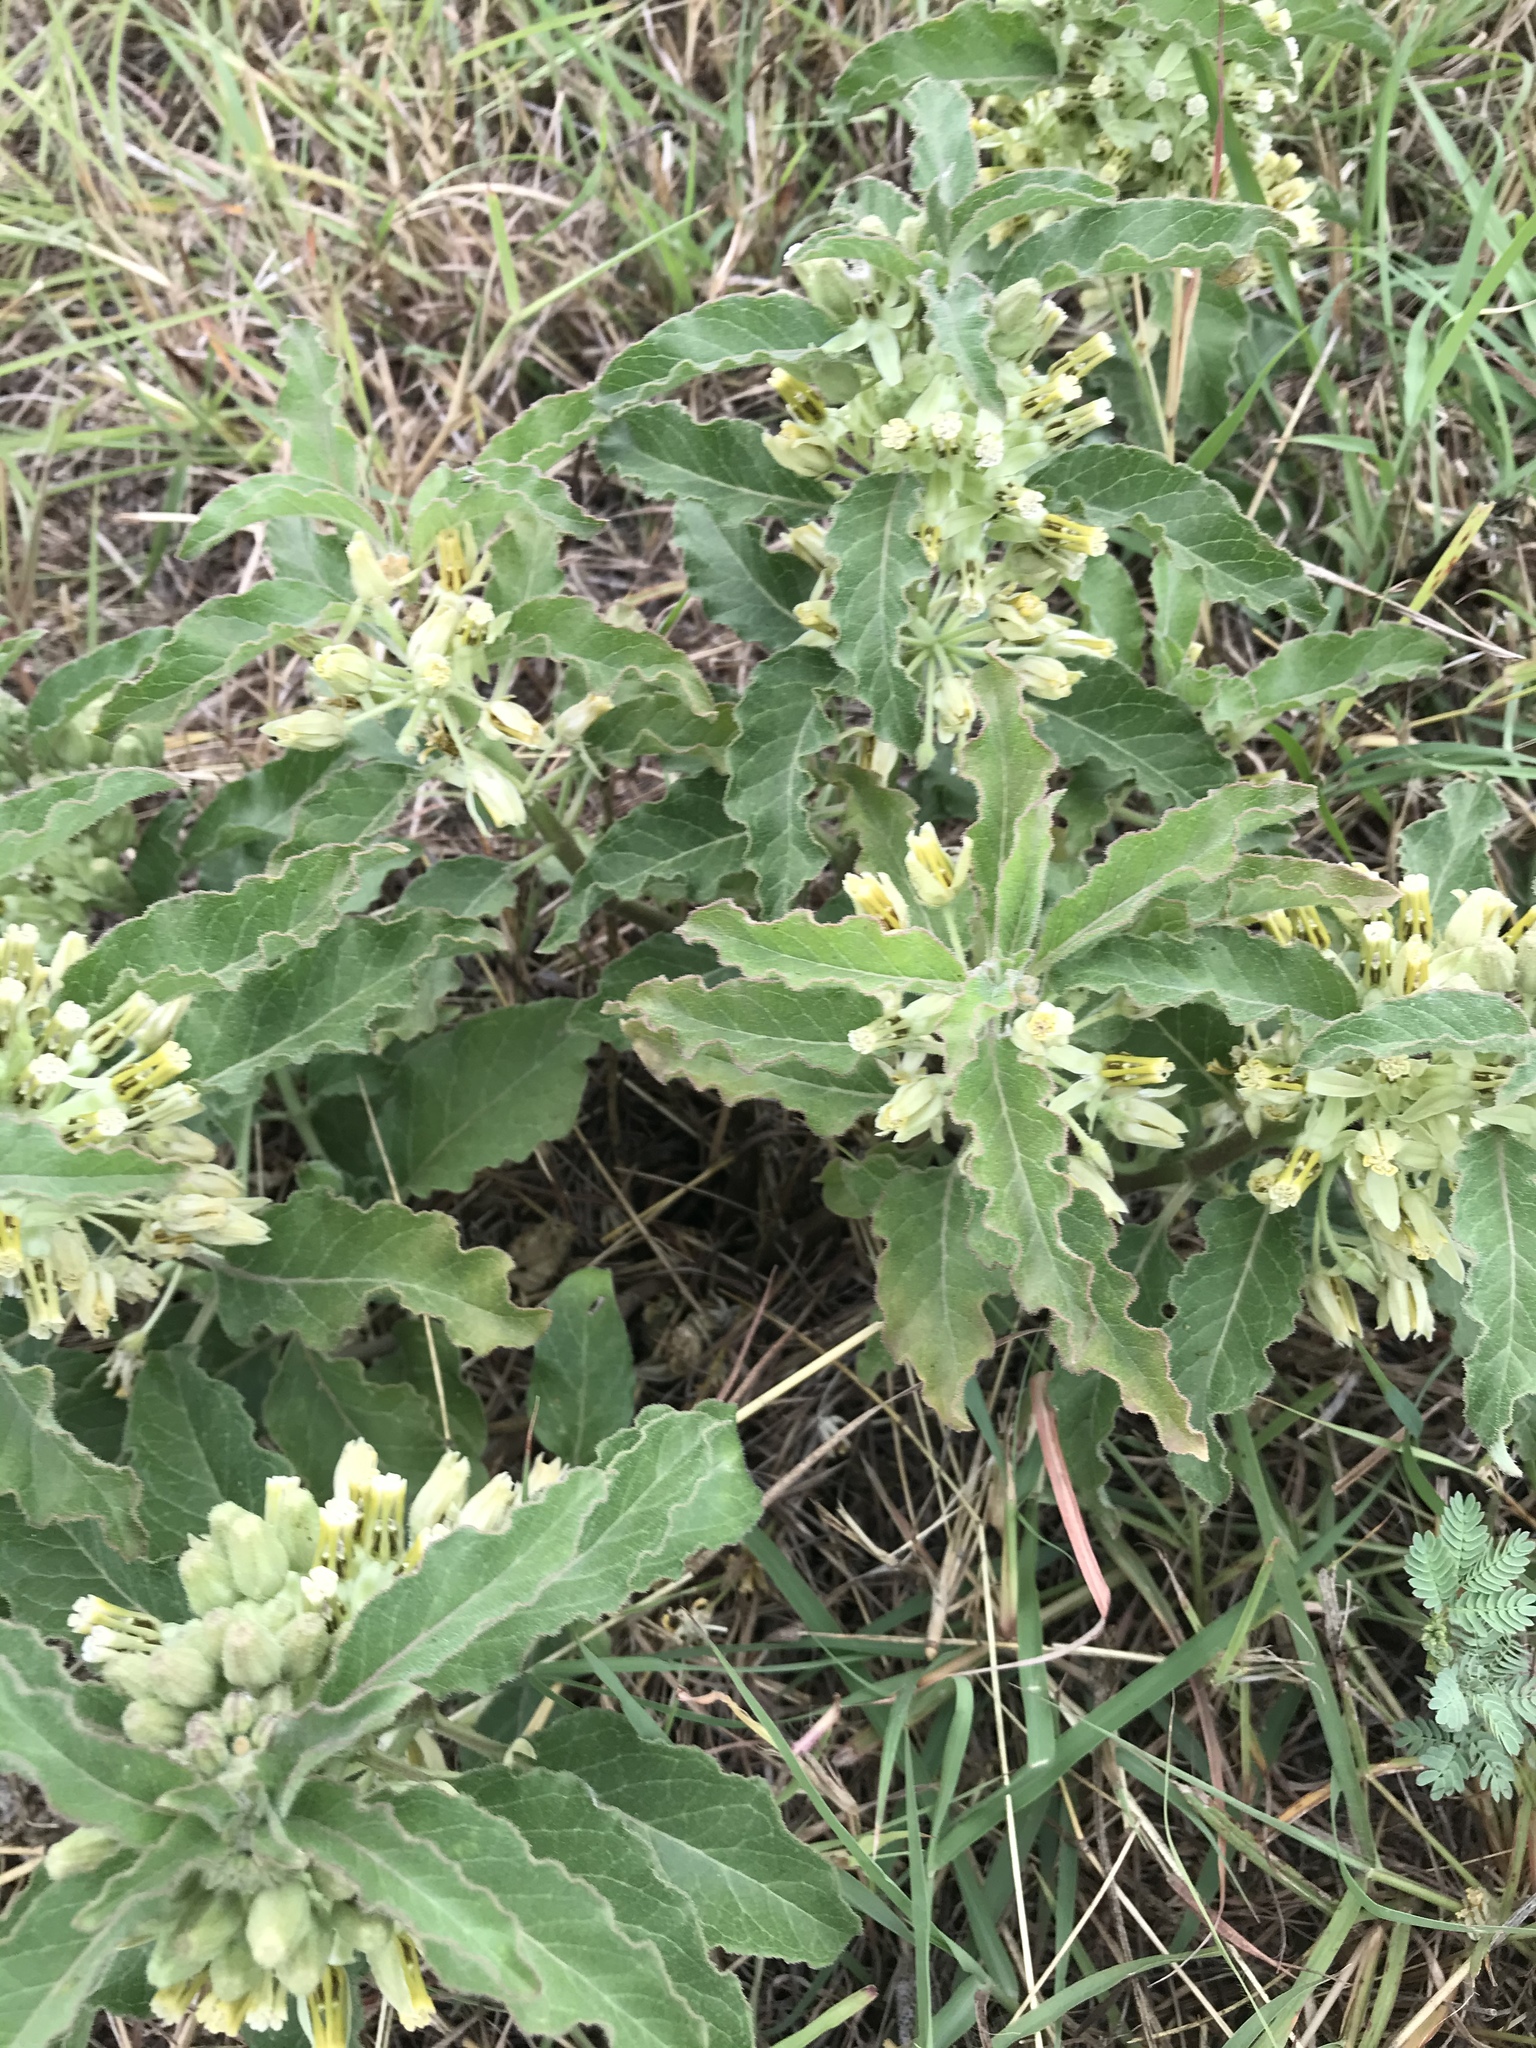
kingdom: Plantae
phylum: Tracheophyta
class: Magnoliopsida
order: Gentianales
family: Apocynaceae
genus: Asclepias
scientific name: Asclepias oenotheroides
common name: Zizotes milkweed
